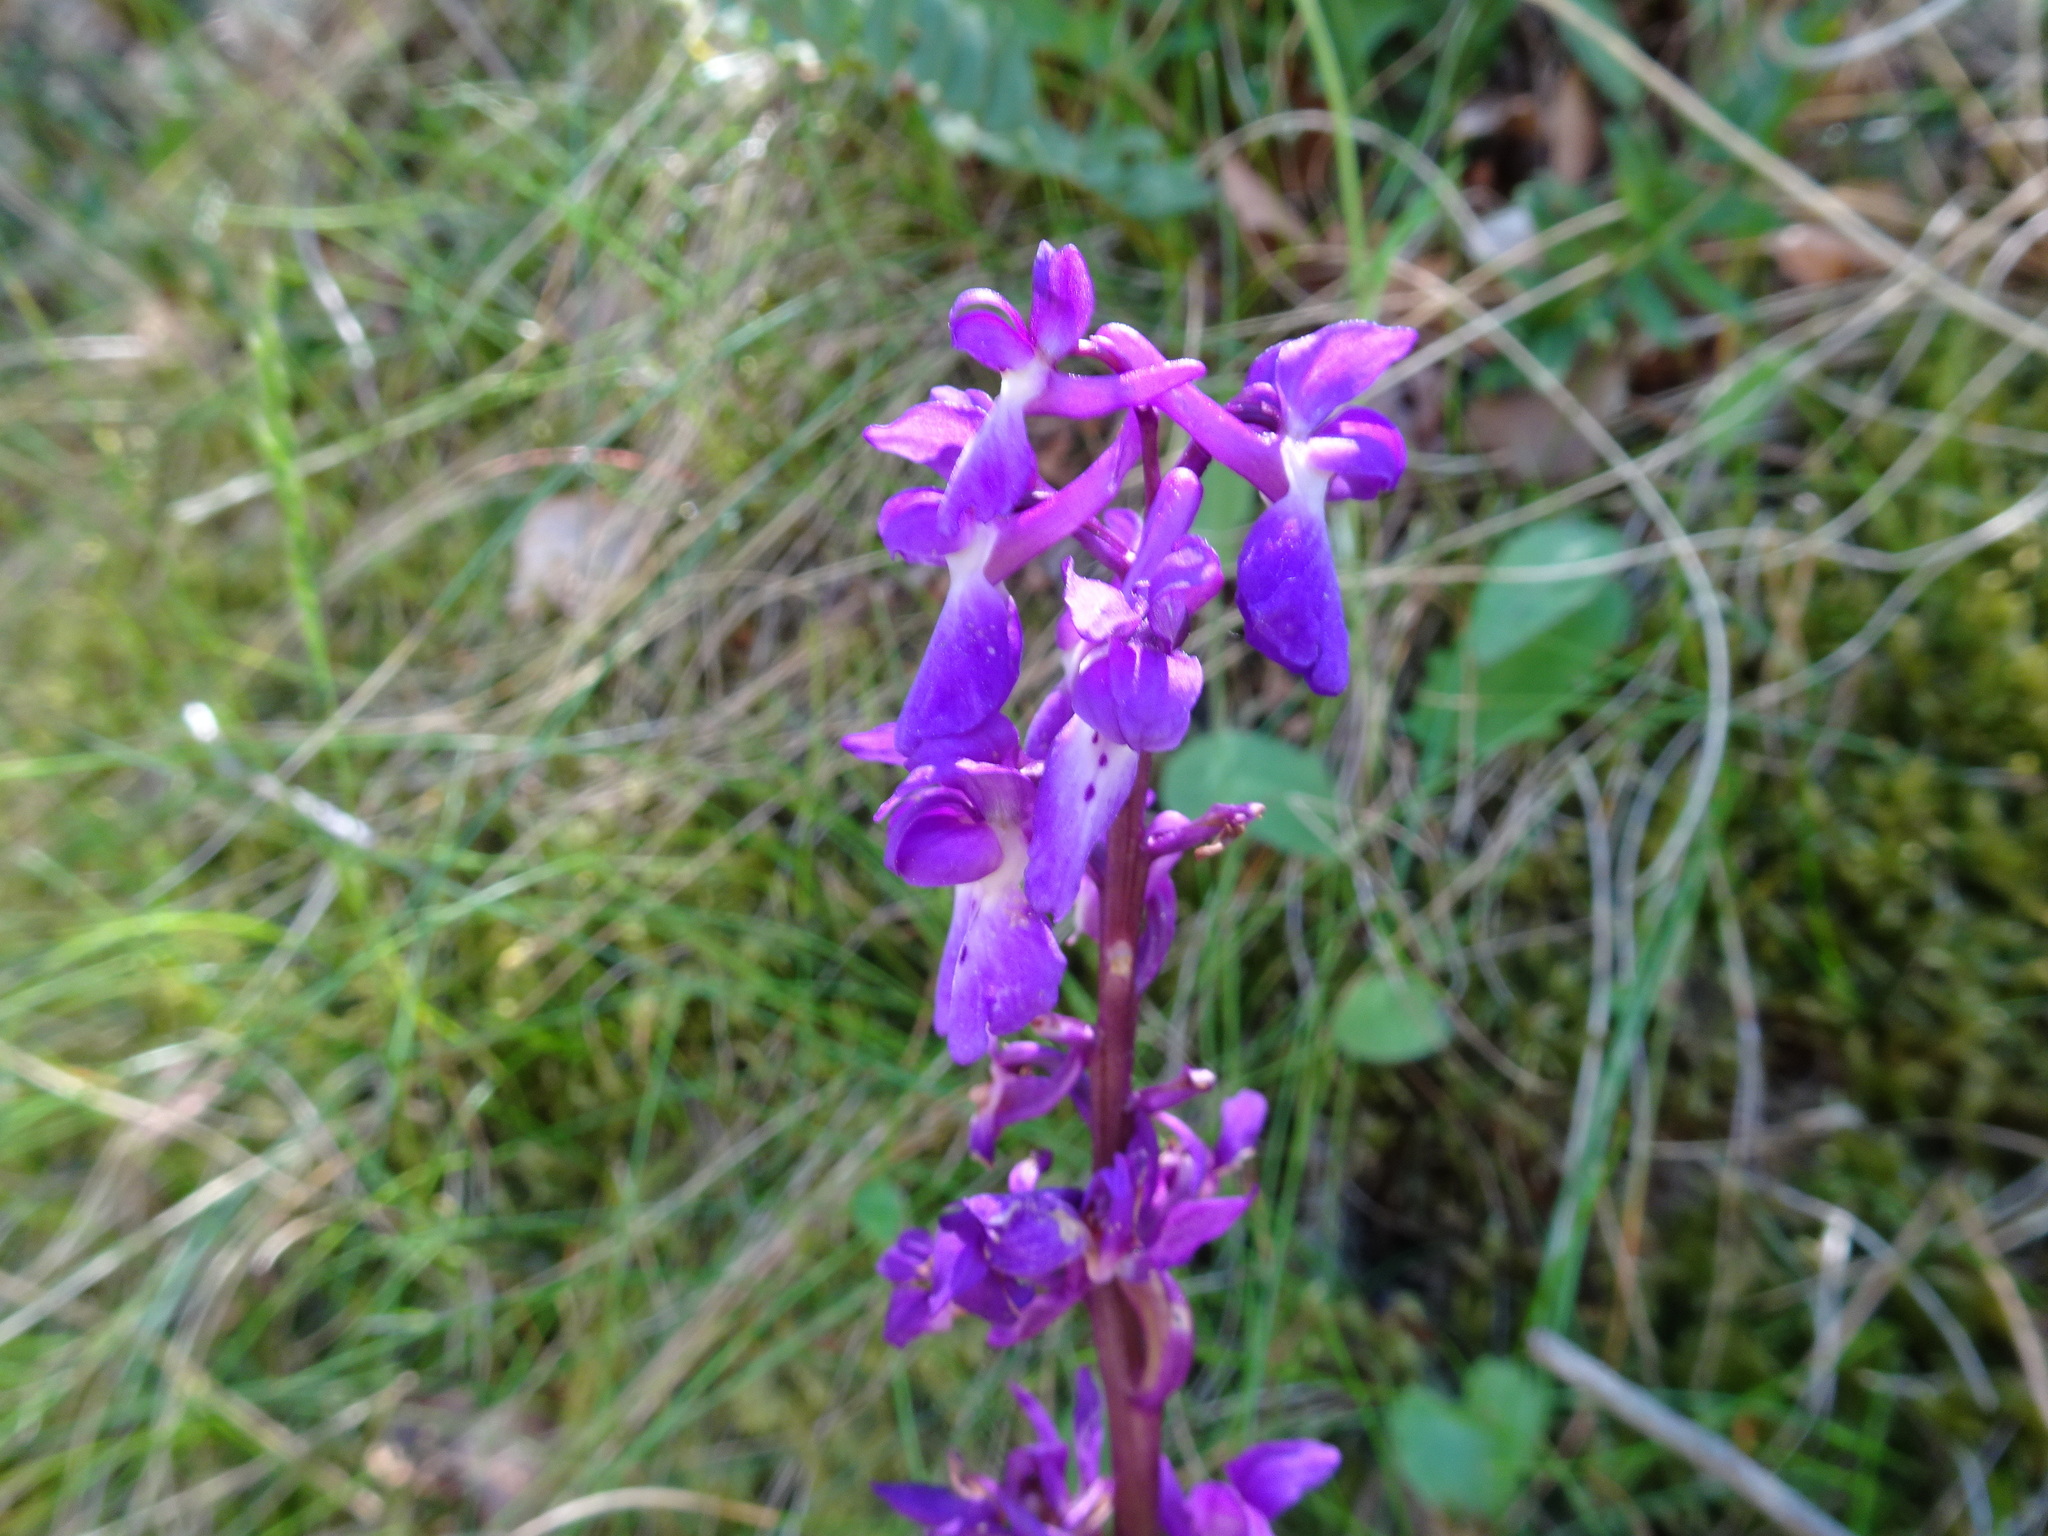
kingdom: Plantae
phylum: Tracheophyta
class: Liliopsida
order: Asparagales
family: Orchidaceae
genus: Orchis
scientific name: Orchis mascula
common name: Early-purple orchid
